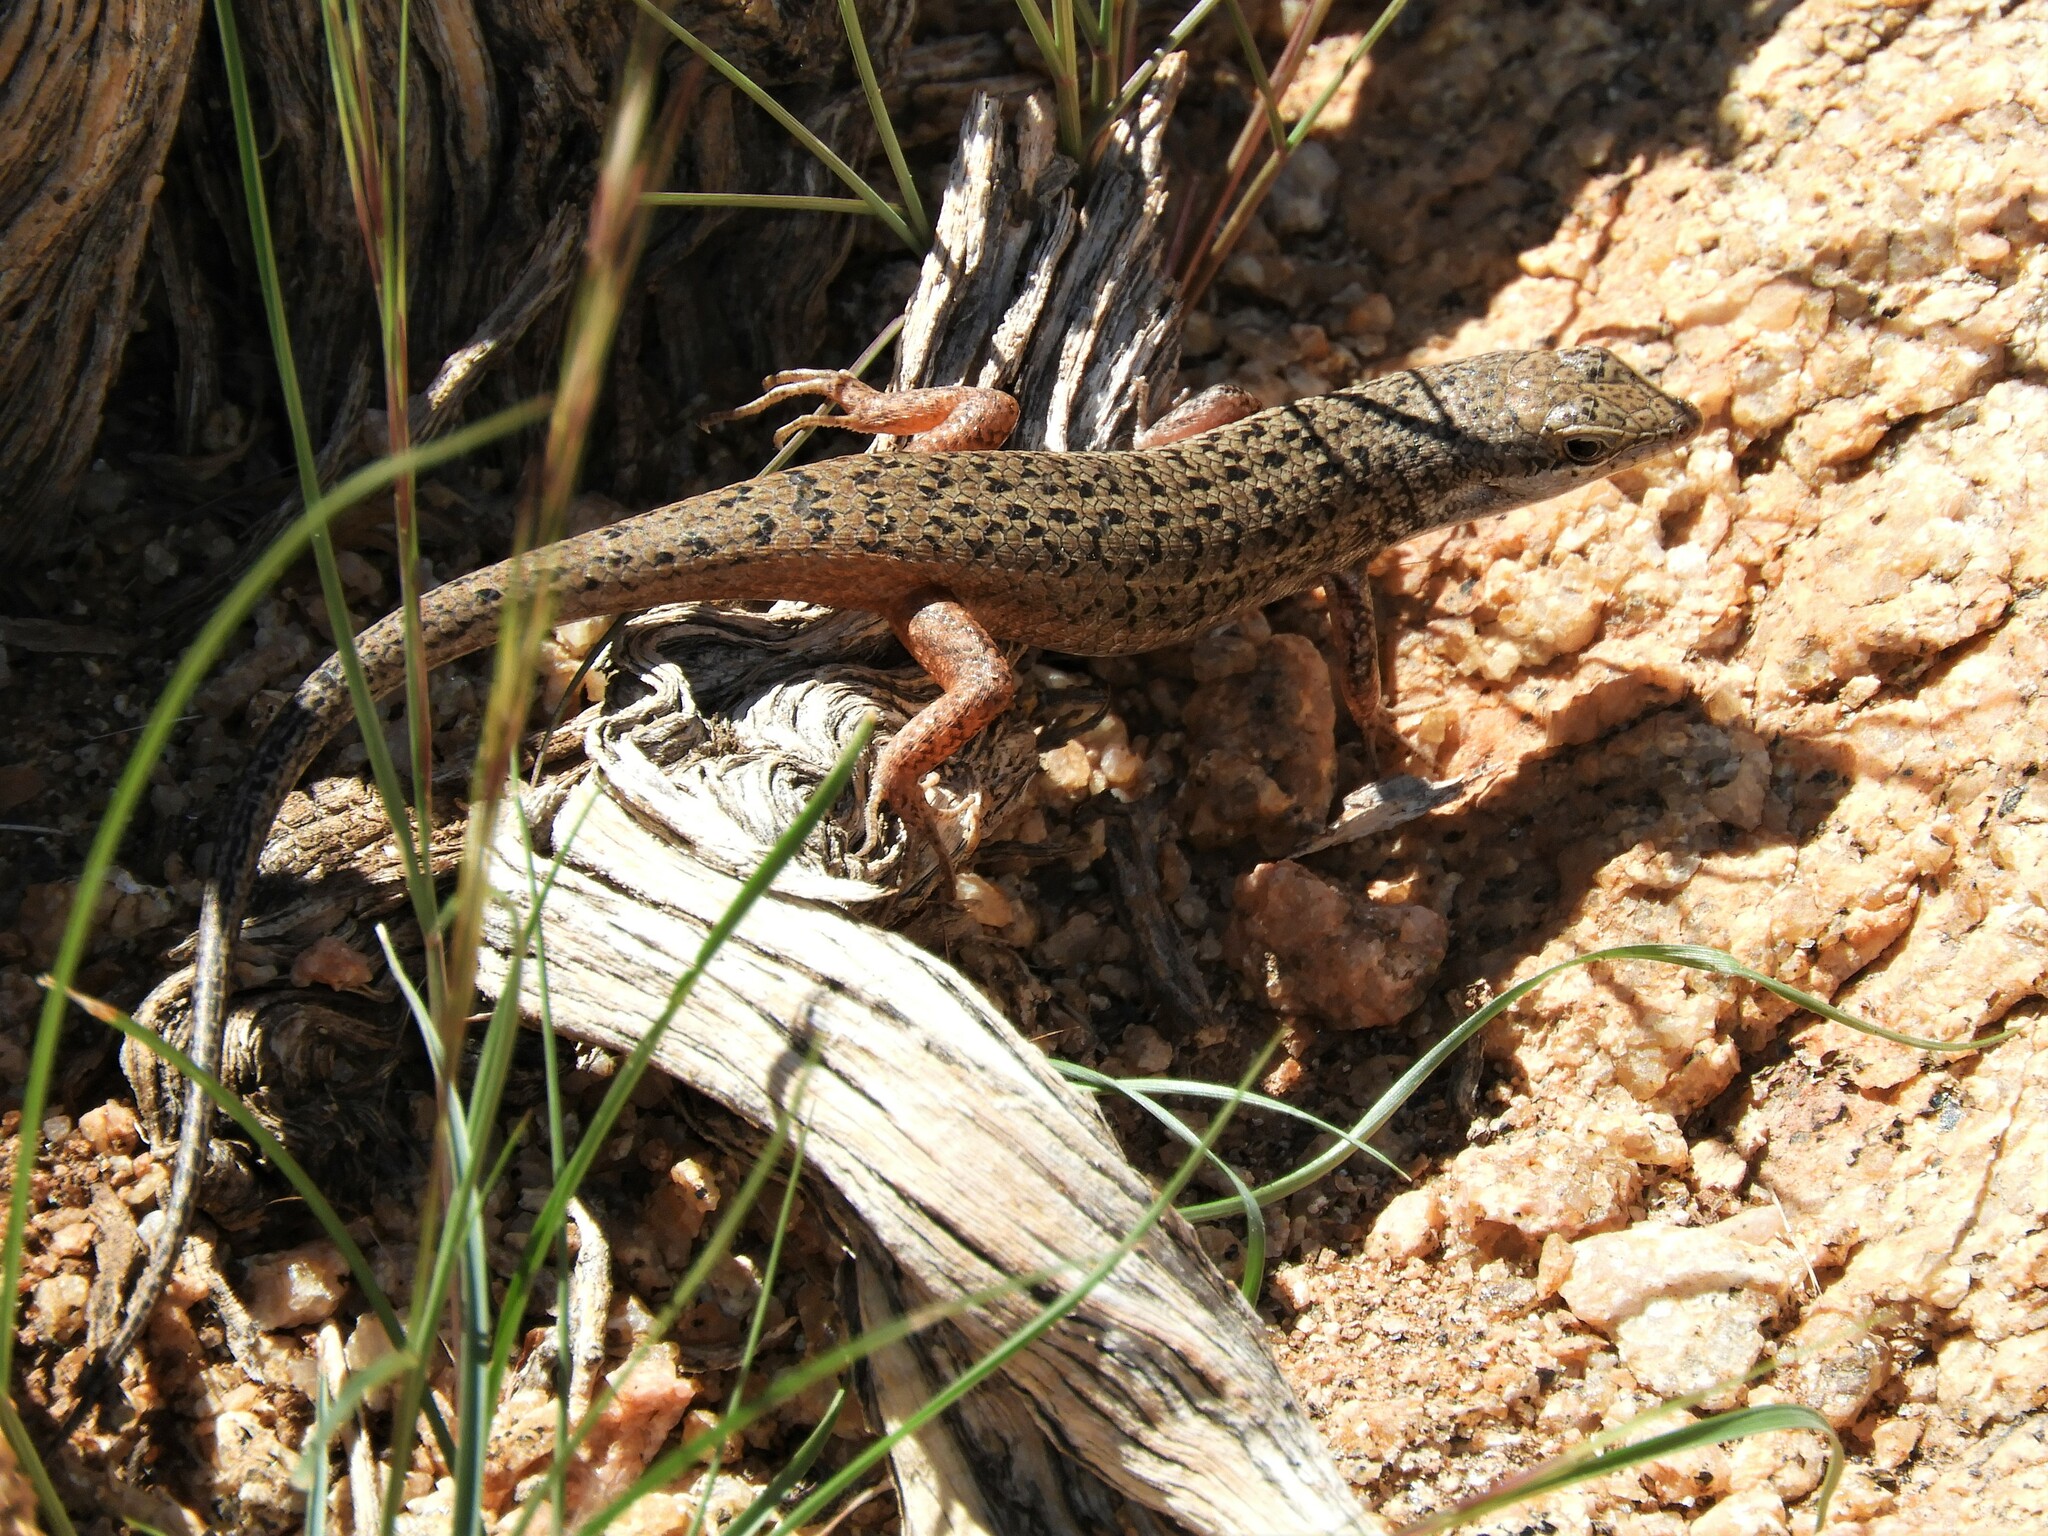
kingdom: Animalia
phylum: Chordata
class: Squamata
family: Scincidae
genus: Trachylepis
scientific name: Trachylepis variegata
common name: Variegated skink
